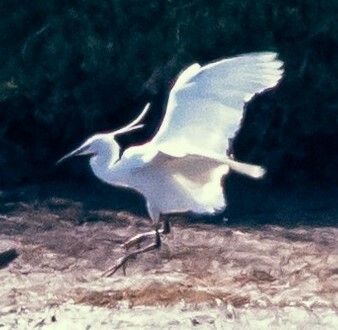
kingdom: Animalia
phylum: Chordata
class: Aves
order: Pelecaniformes
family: Ardeidae
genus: Egretta
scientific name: Egretta garzetta
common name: Little egret
